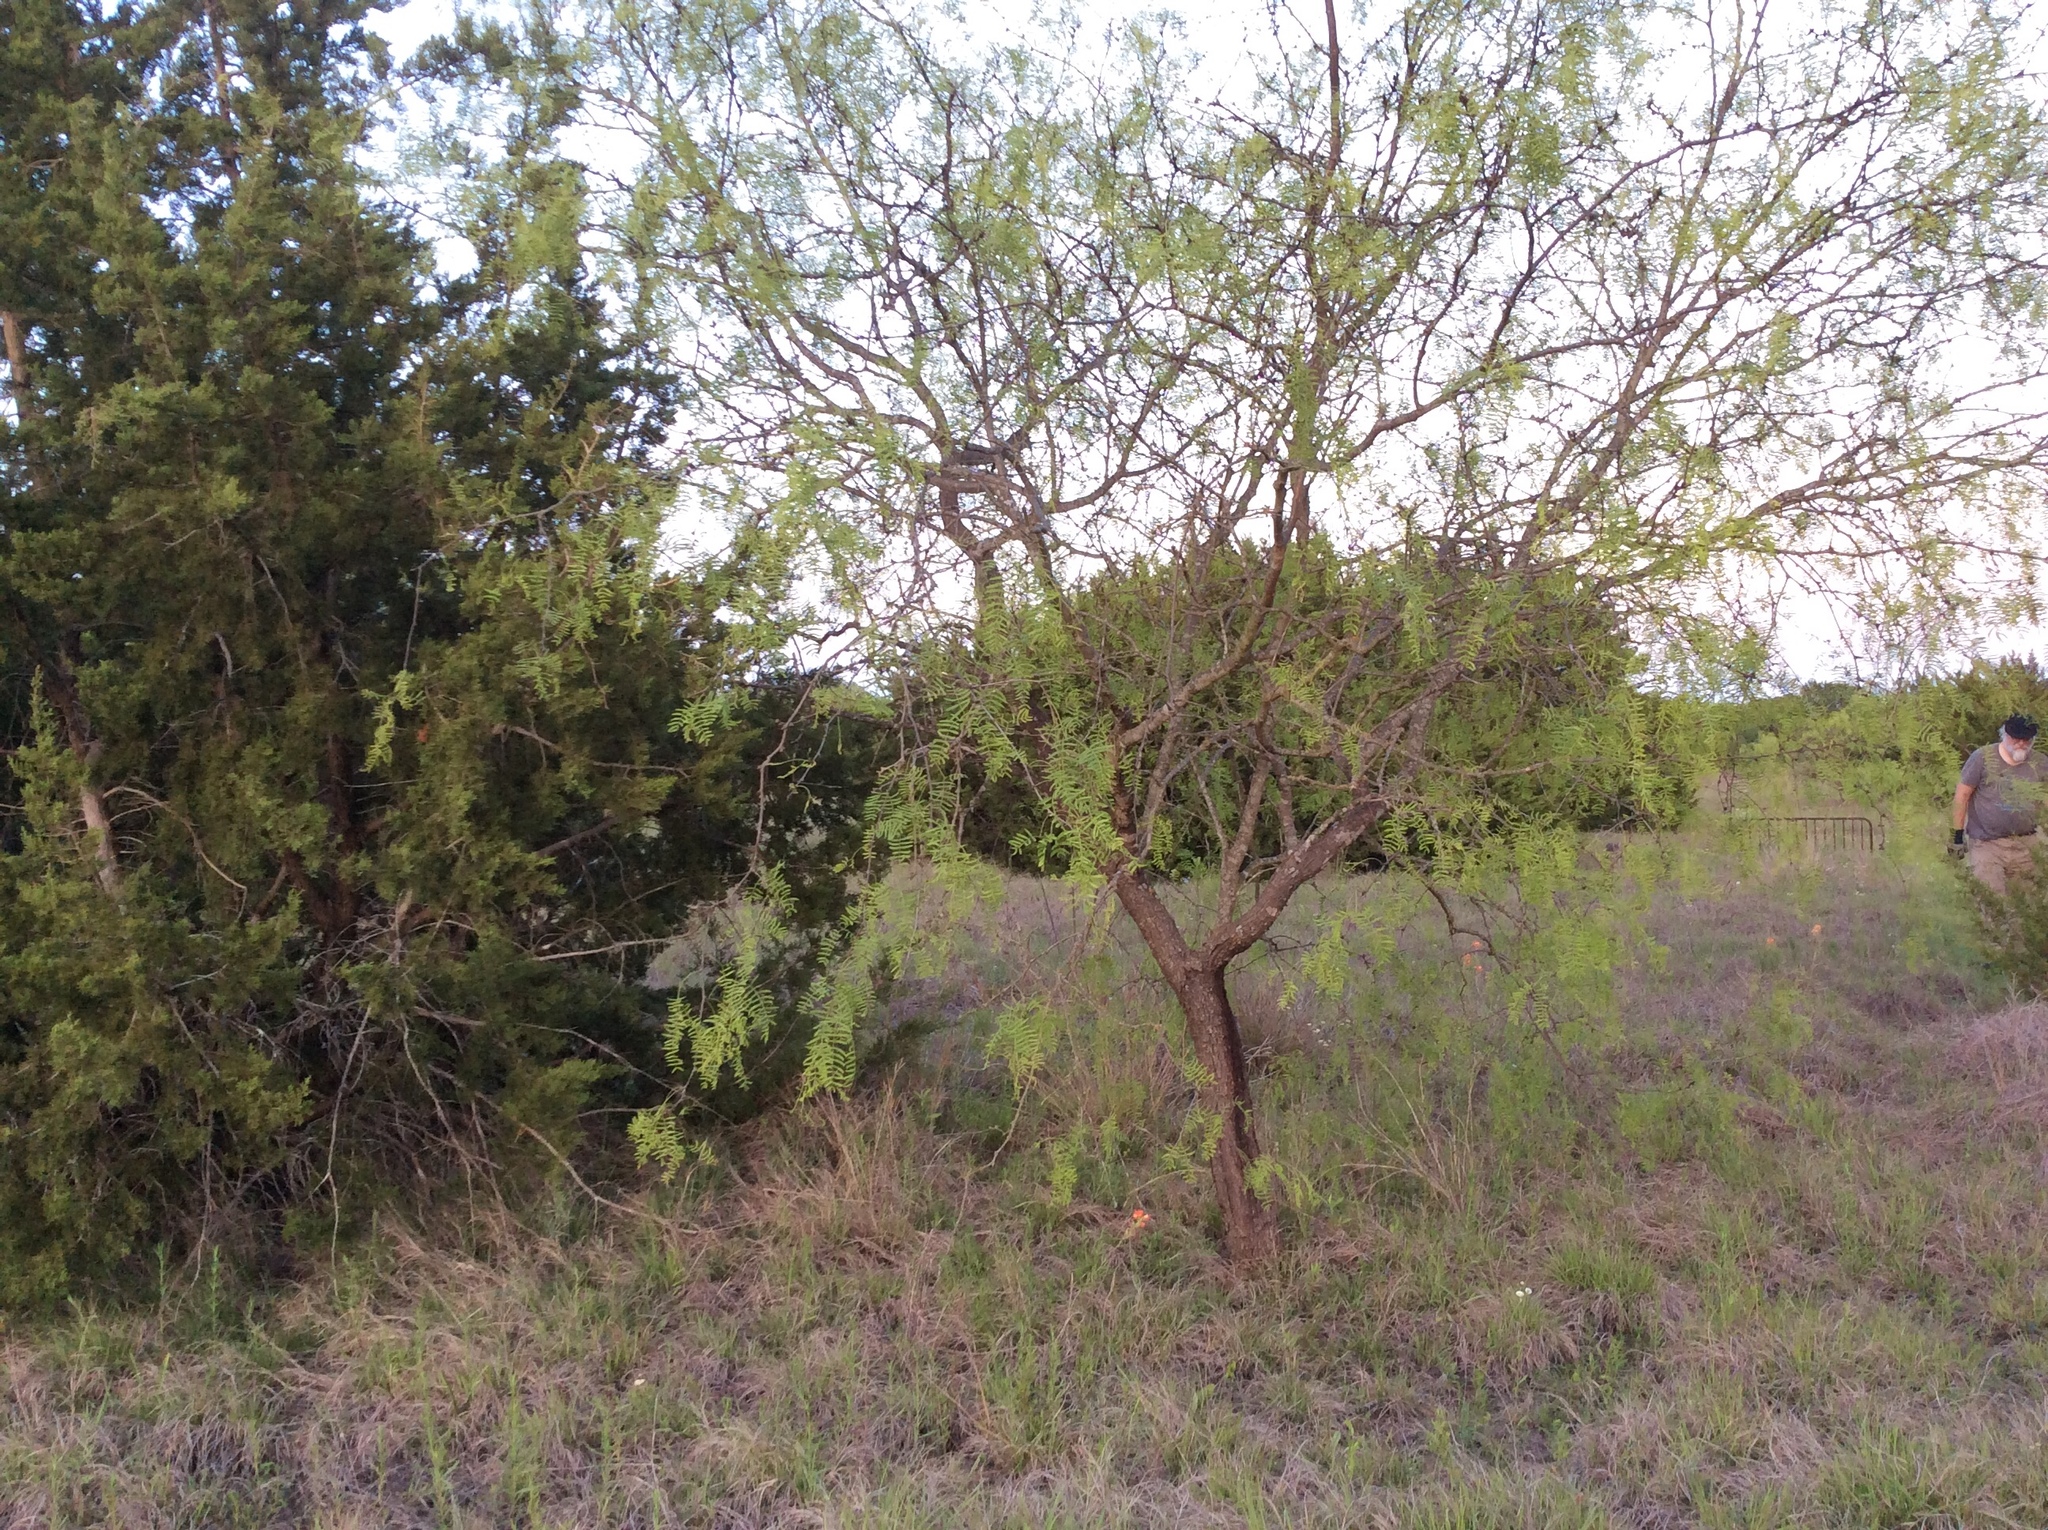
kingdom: Plantae
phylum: Tracheophyta
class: Magnoliopsida
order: Fabales
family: Fabaceae
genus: Prosopis
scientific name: Prosopis glandulosa
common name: Honey mesquite
